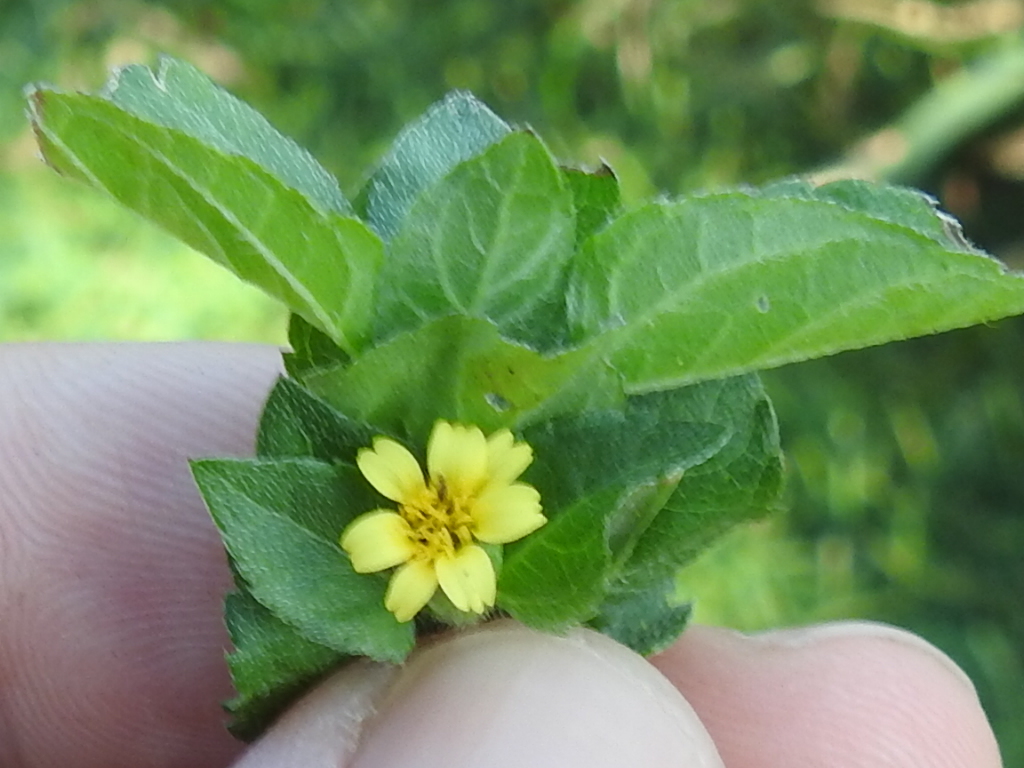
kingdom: Plantae
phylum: Tracheophyta
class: Magnoliopsida
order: Asterales
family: Asteraceae
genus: Calyptocarpus
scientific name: Calyptocarpus vialis
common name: Straggler daisy
